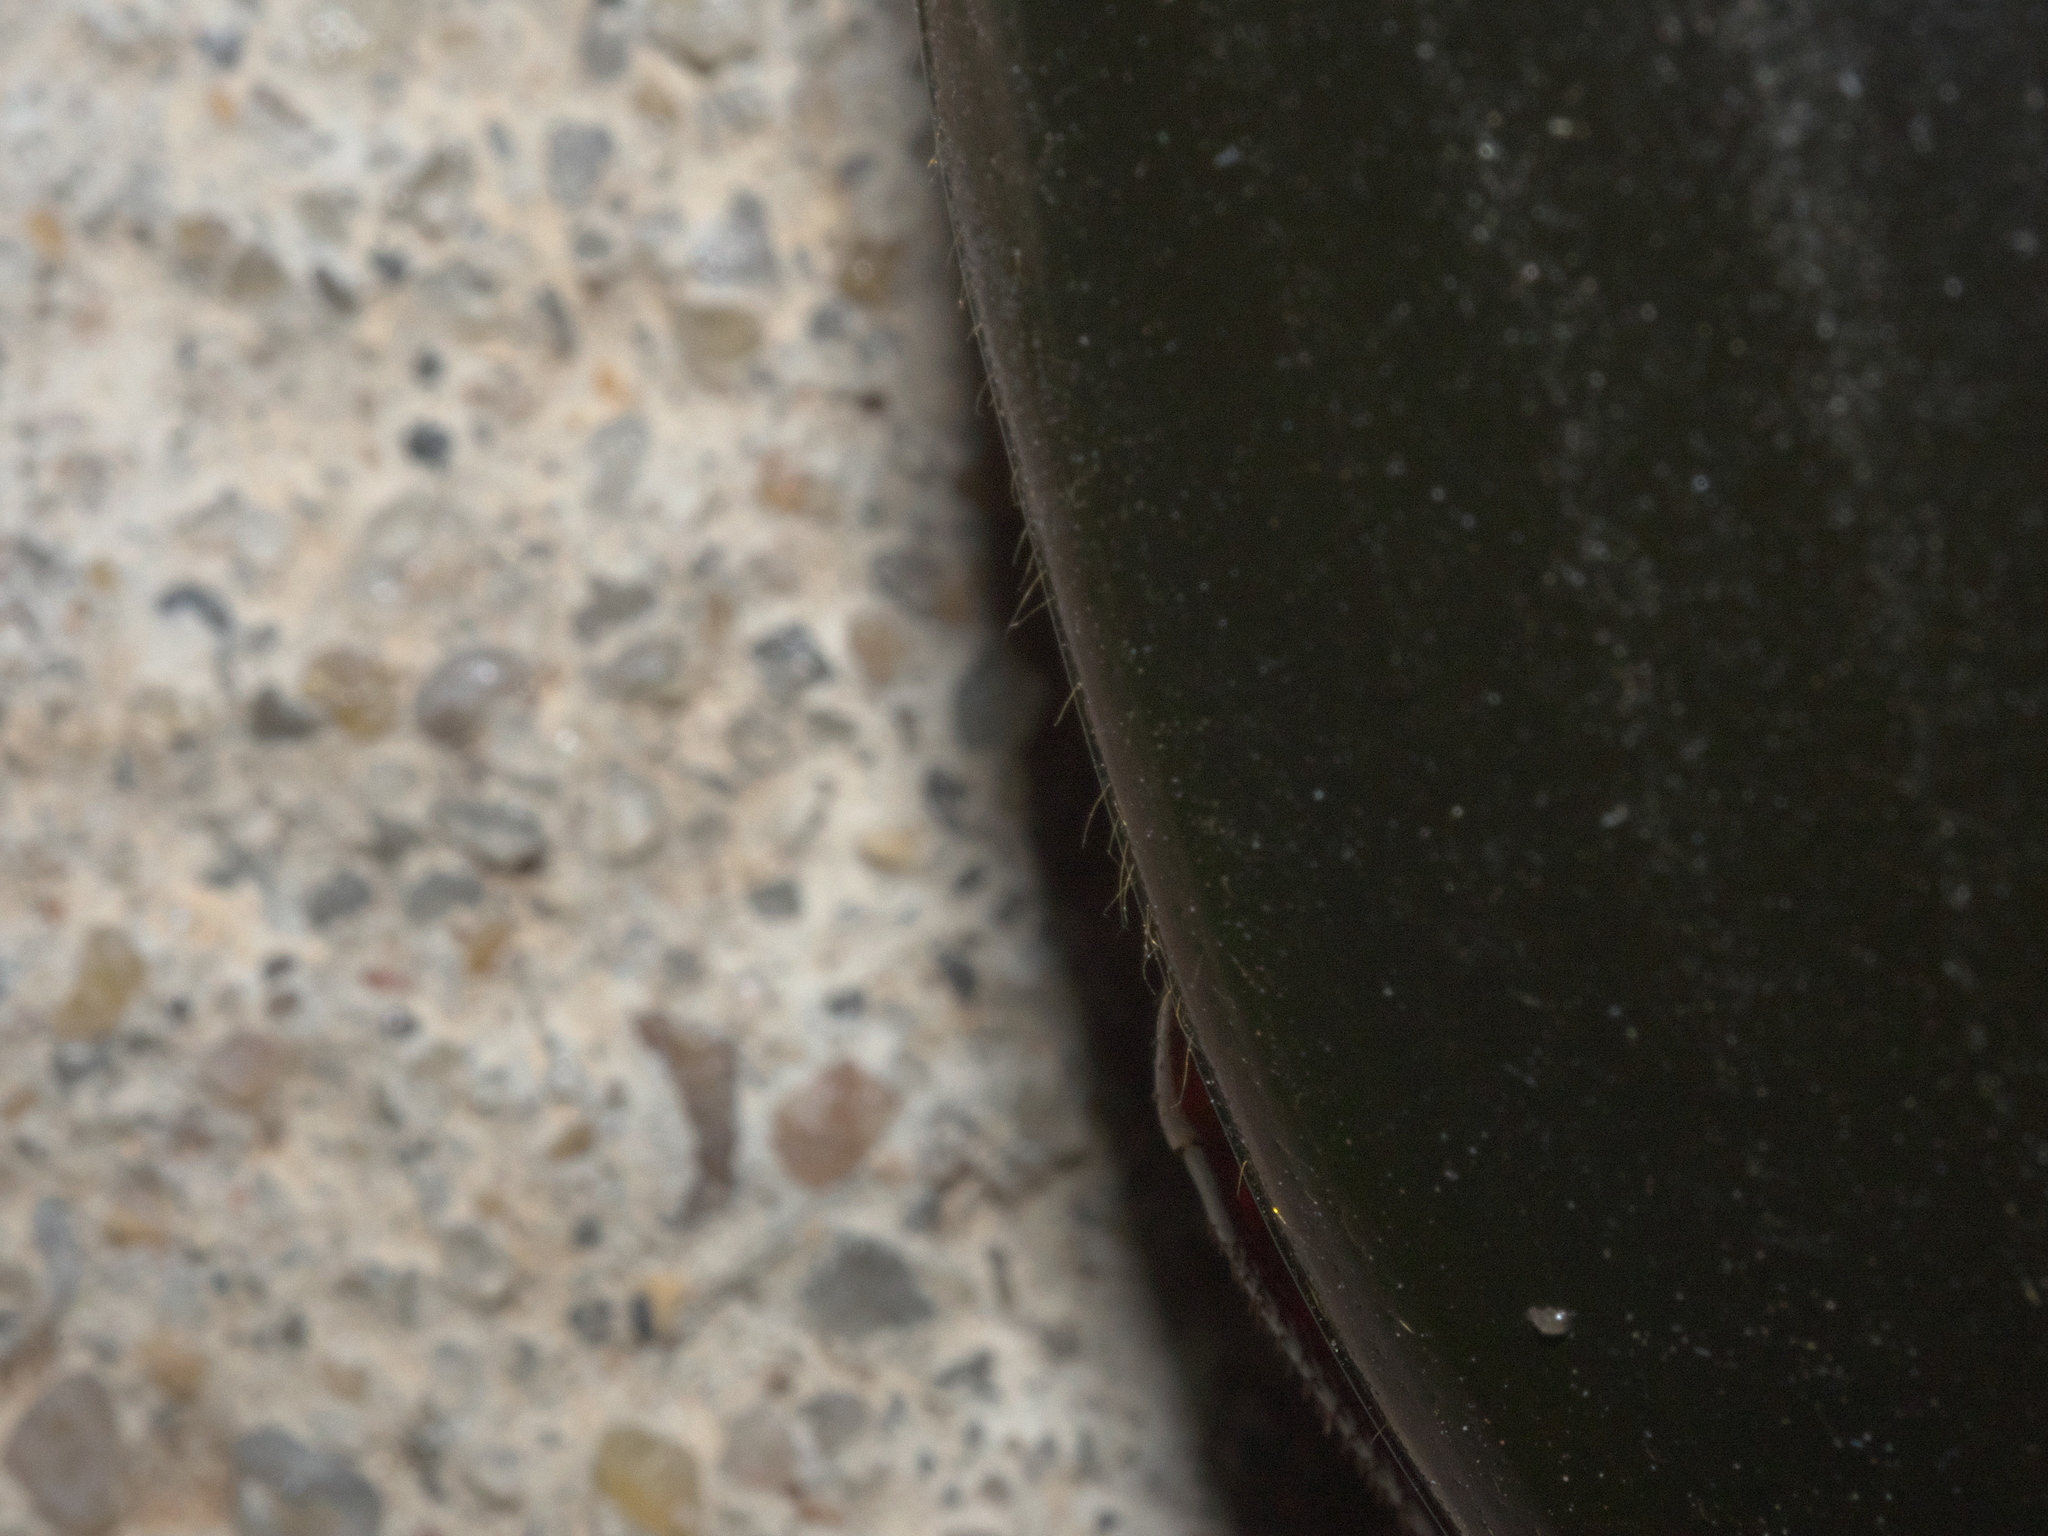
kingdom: Animalia
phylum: Arthropoda
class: Insecta
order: Coleoptera
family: Hydrophilidae
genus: Hydrophilus
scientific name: Hydrophilus triangularis
